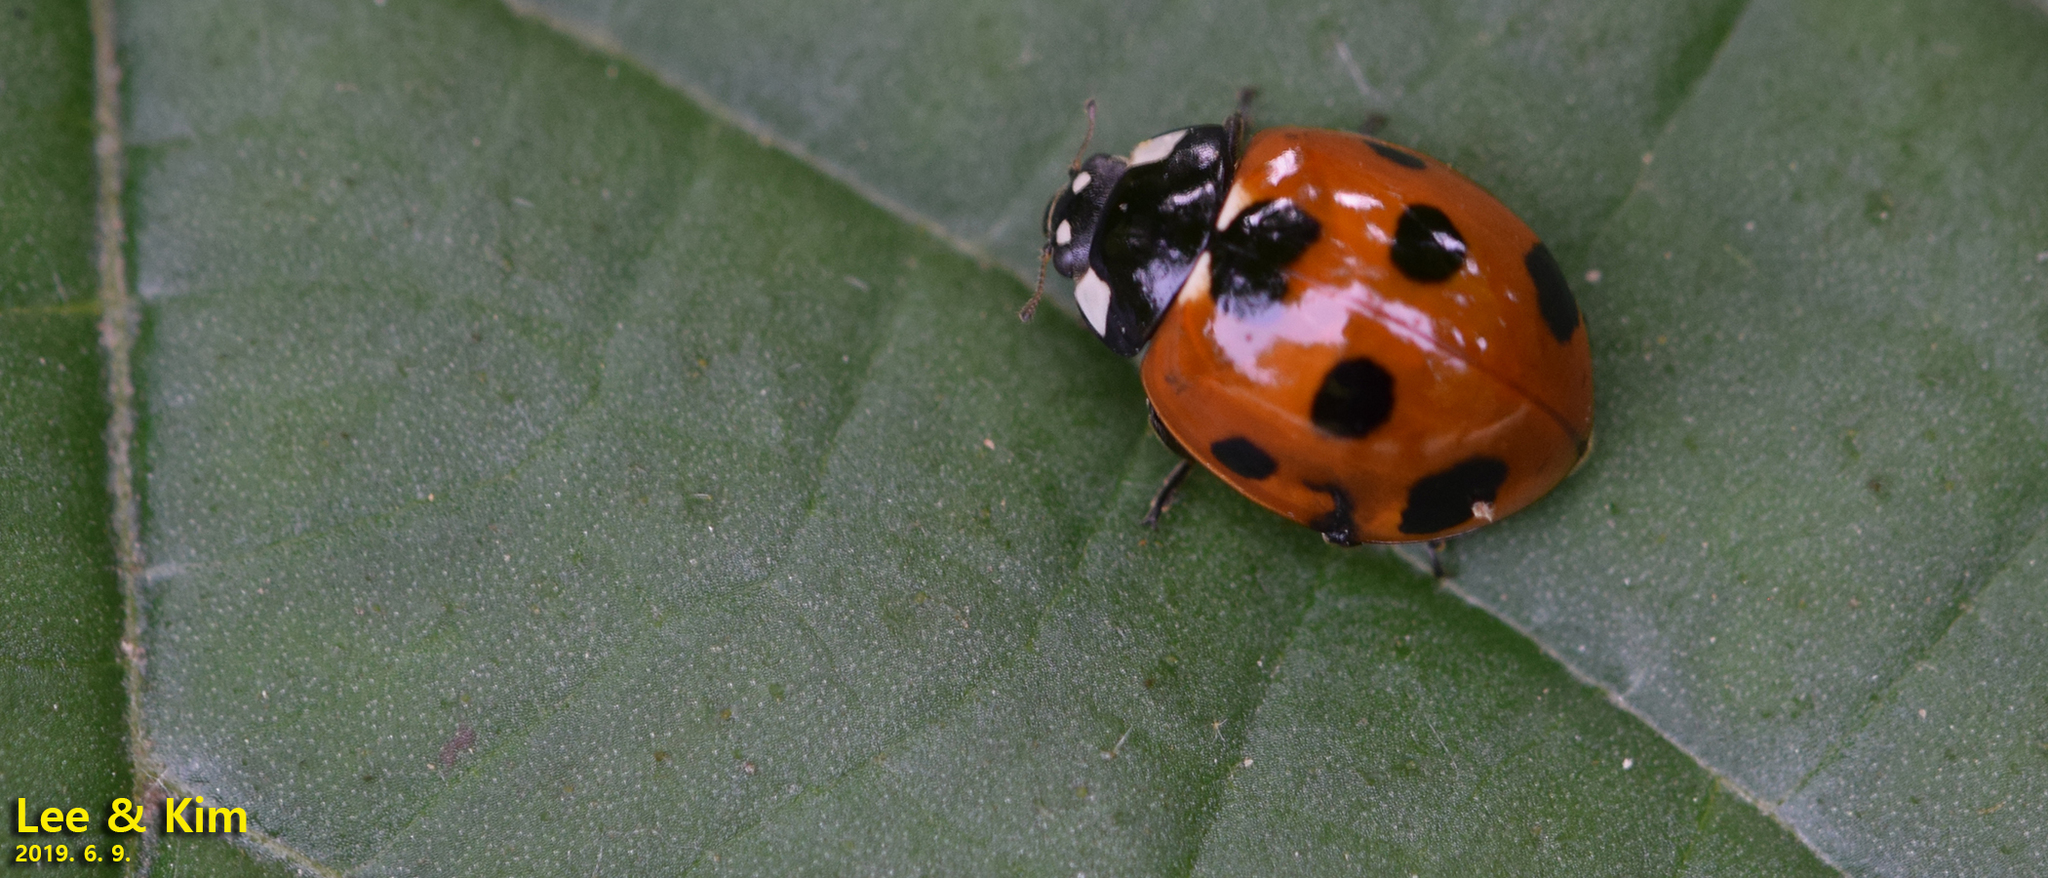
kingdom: Animalia
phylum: Arthropoda
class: Insecta
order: Coleoptera
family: Coccinellidae
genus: Coccinella
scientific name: Coccinella septempunctata
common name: Sevenspotted lady beetle
